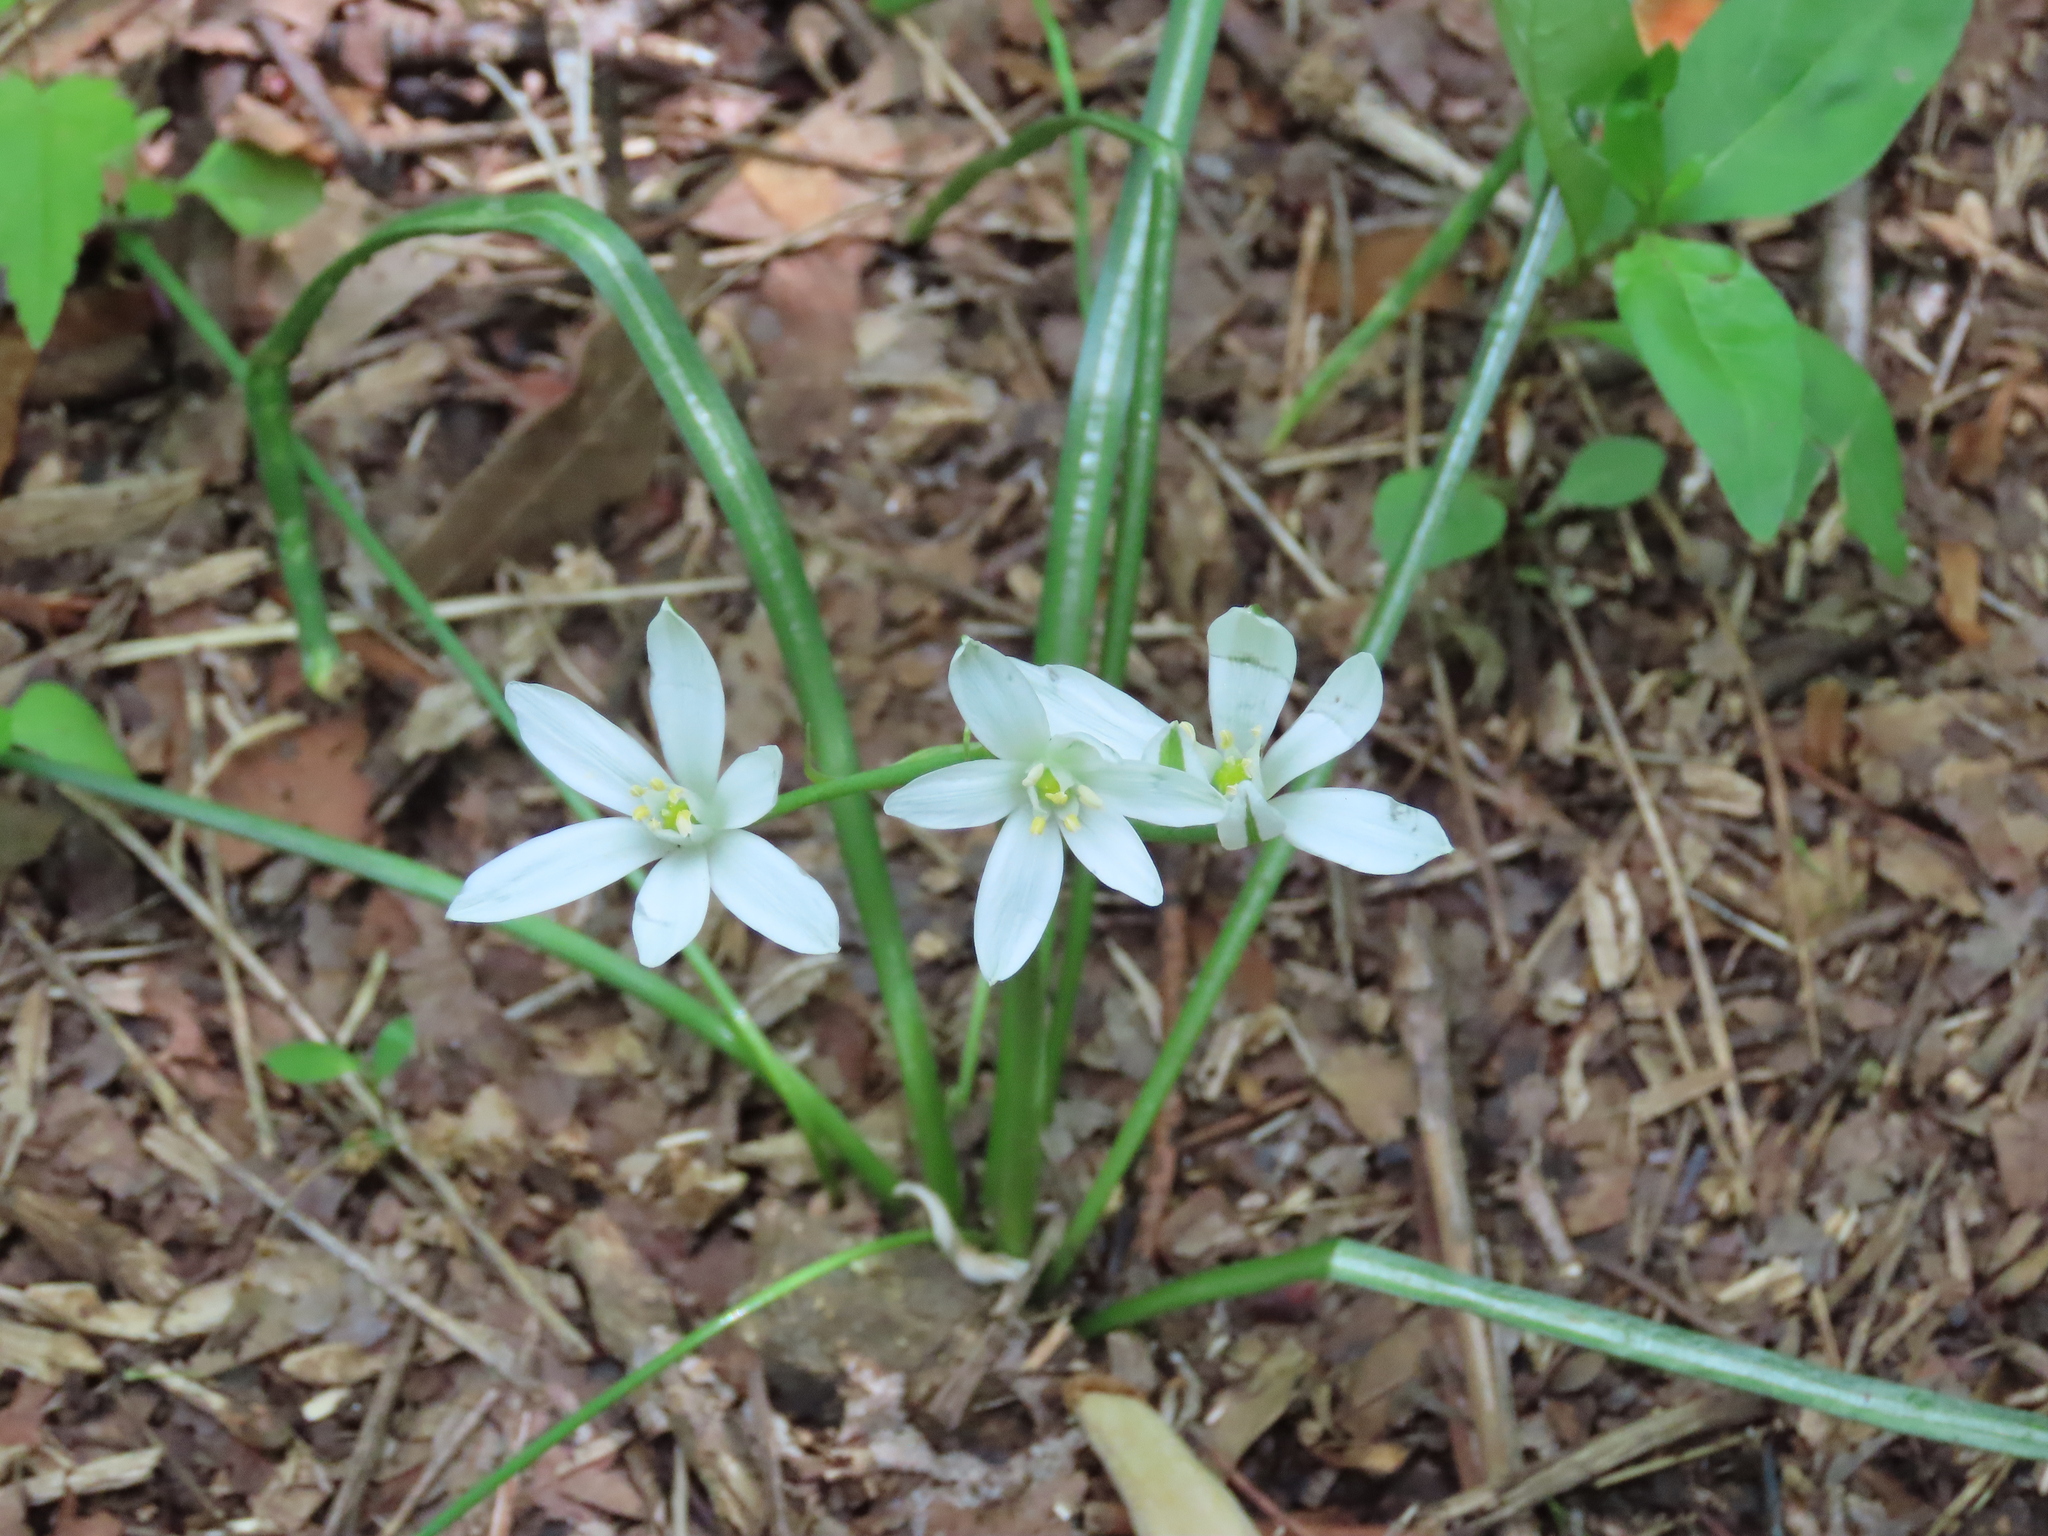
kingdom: Plantae
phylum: Tracheophyta
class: Liliopsida
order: Asparagales
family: Asparagaceae
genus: Ornithogalum
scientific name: Ornithogalum umbellatum
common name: Garden star-of-bethlehem
